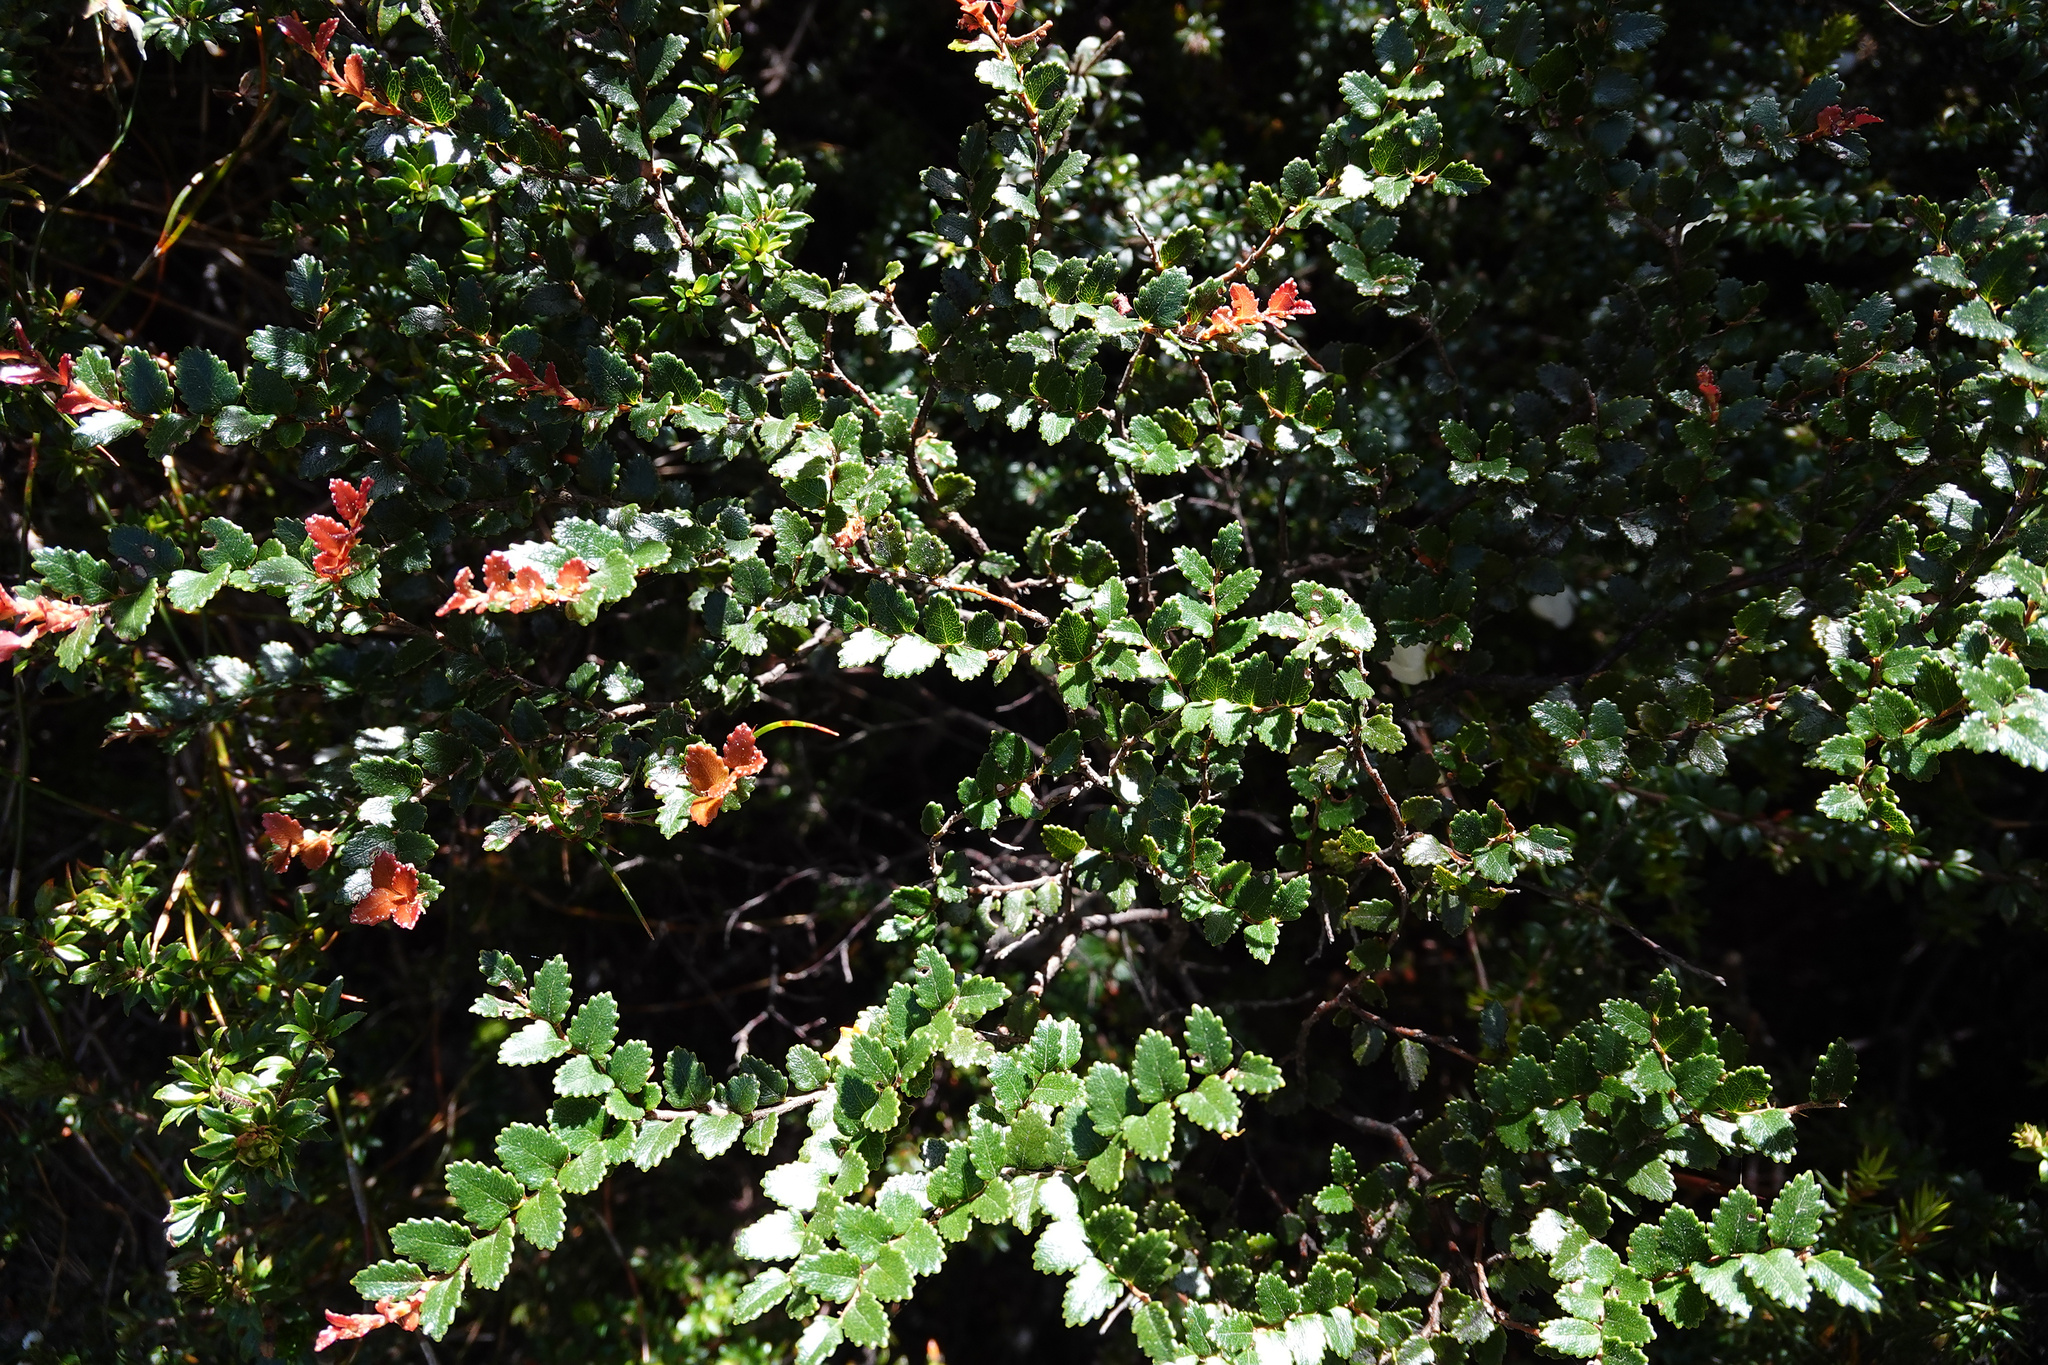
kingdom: Plantae
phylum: Tracheophyta
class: Magnoliopsida
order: Fagales
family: Nothofagaceae
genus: Nothofagus
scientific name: Nothofagus cunninghamii
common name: Myrtle beech
